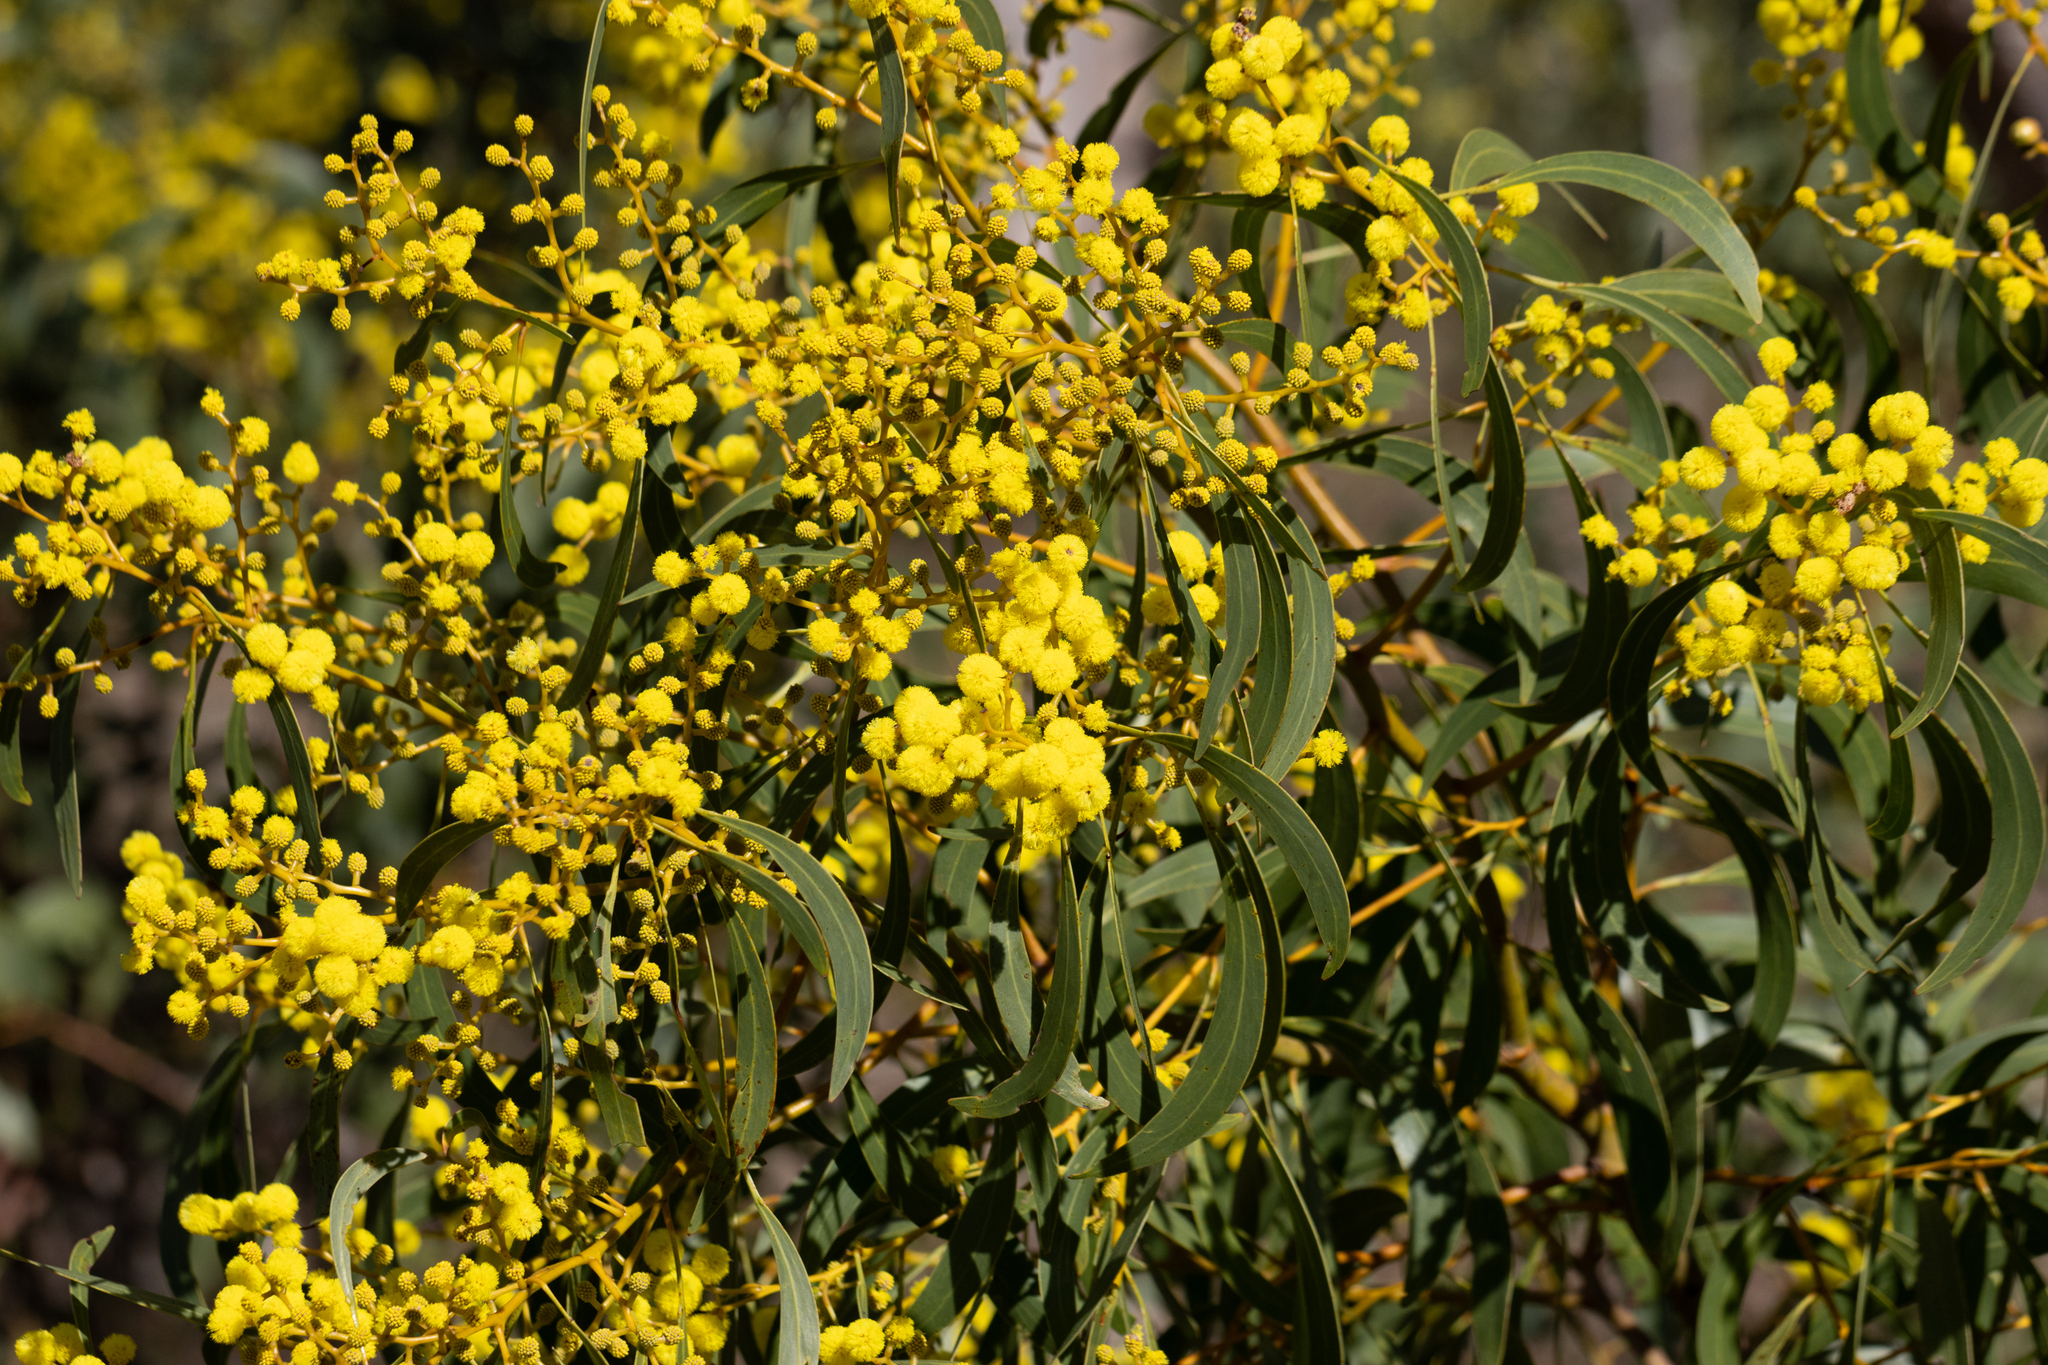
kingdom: Plantae
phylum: Tracheophyta
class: Magnoliopsida
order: Fabales
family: Fabaceae
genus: Acacia
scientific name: Acacia pycnantha
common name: Golden wattle
